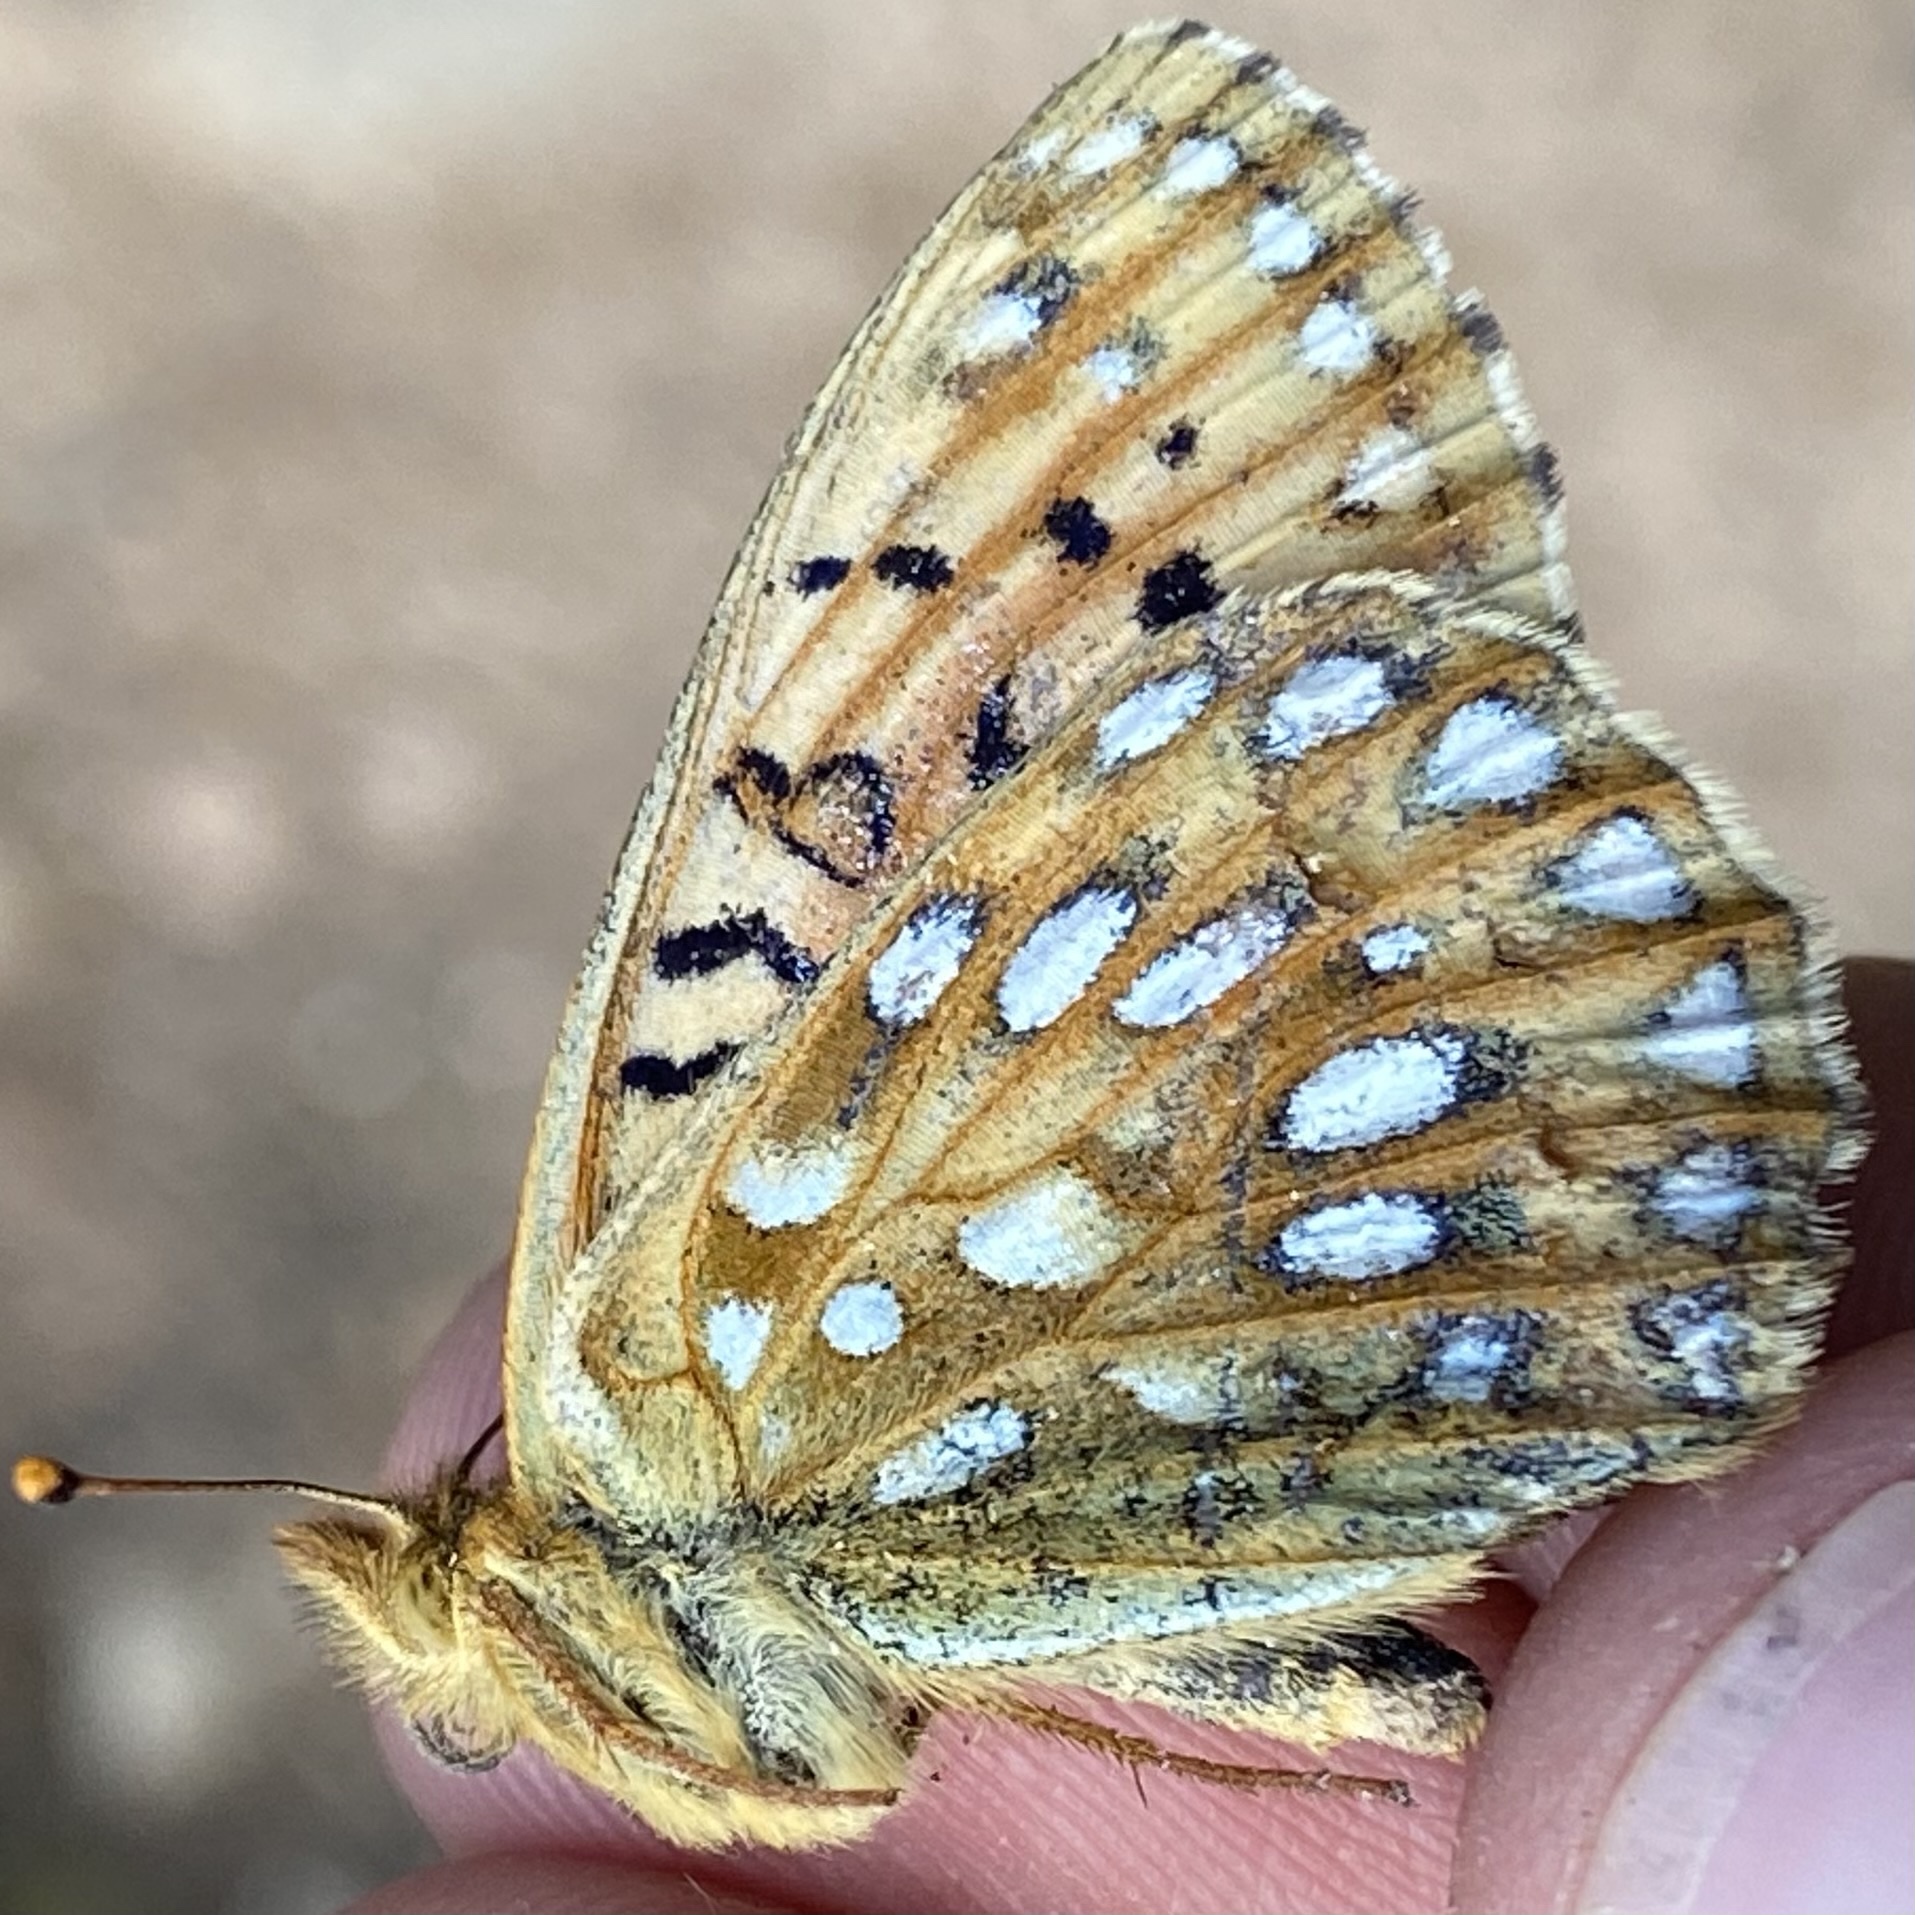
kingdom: Animalia
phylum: Arthropoda
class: Insecta
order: Lepidoptera
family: Nymphalidae
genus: Speyeria
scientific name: Speyeria mormonia
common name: Mormon fritillary
